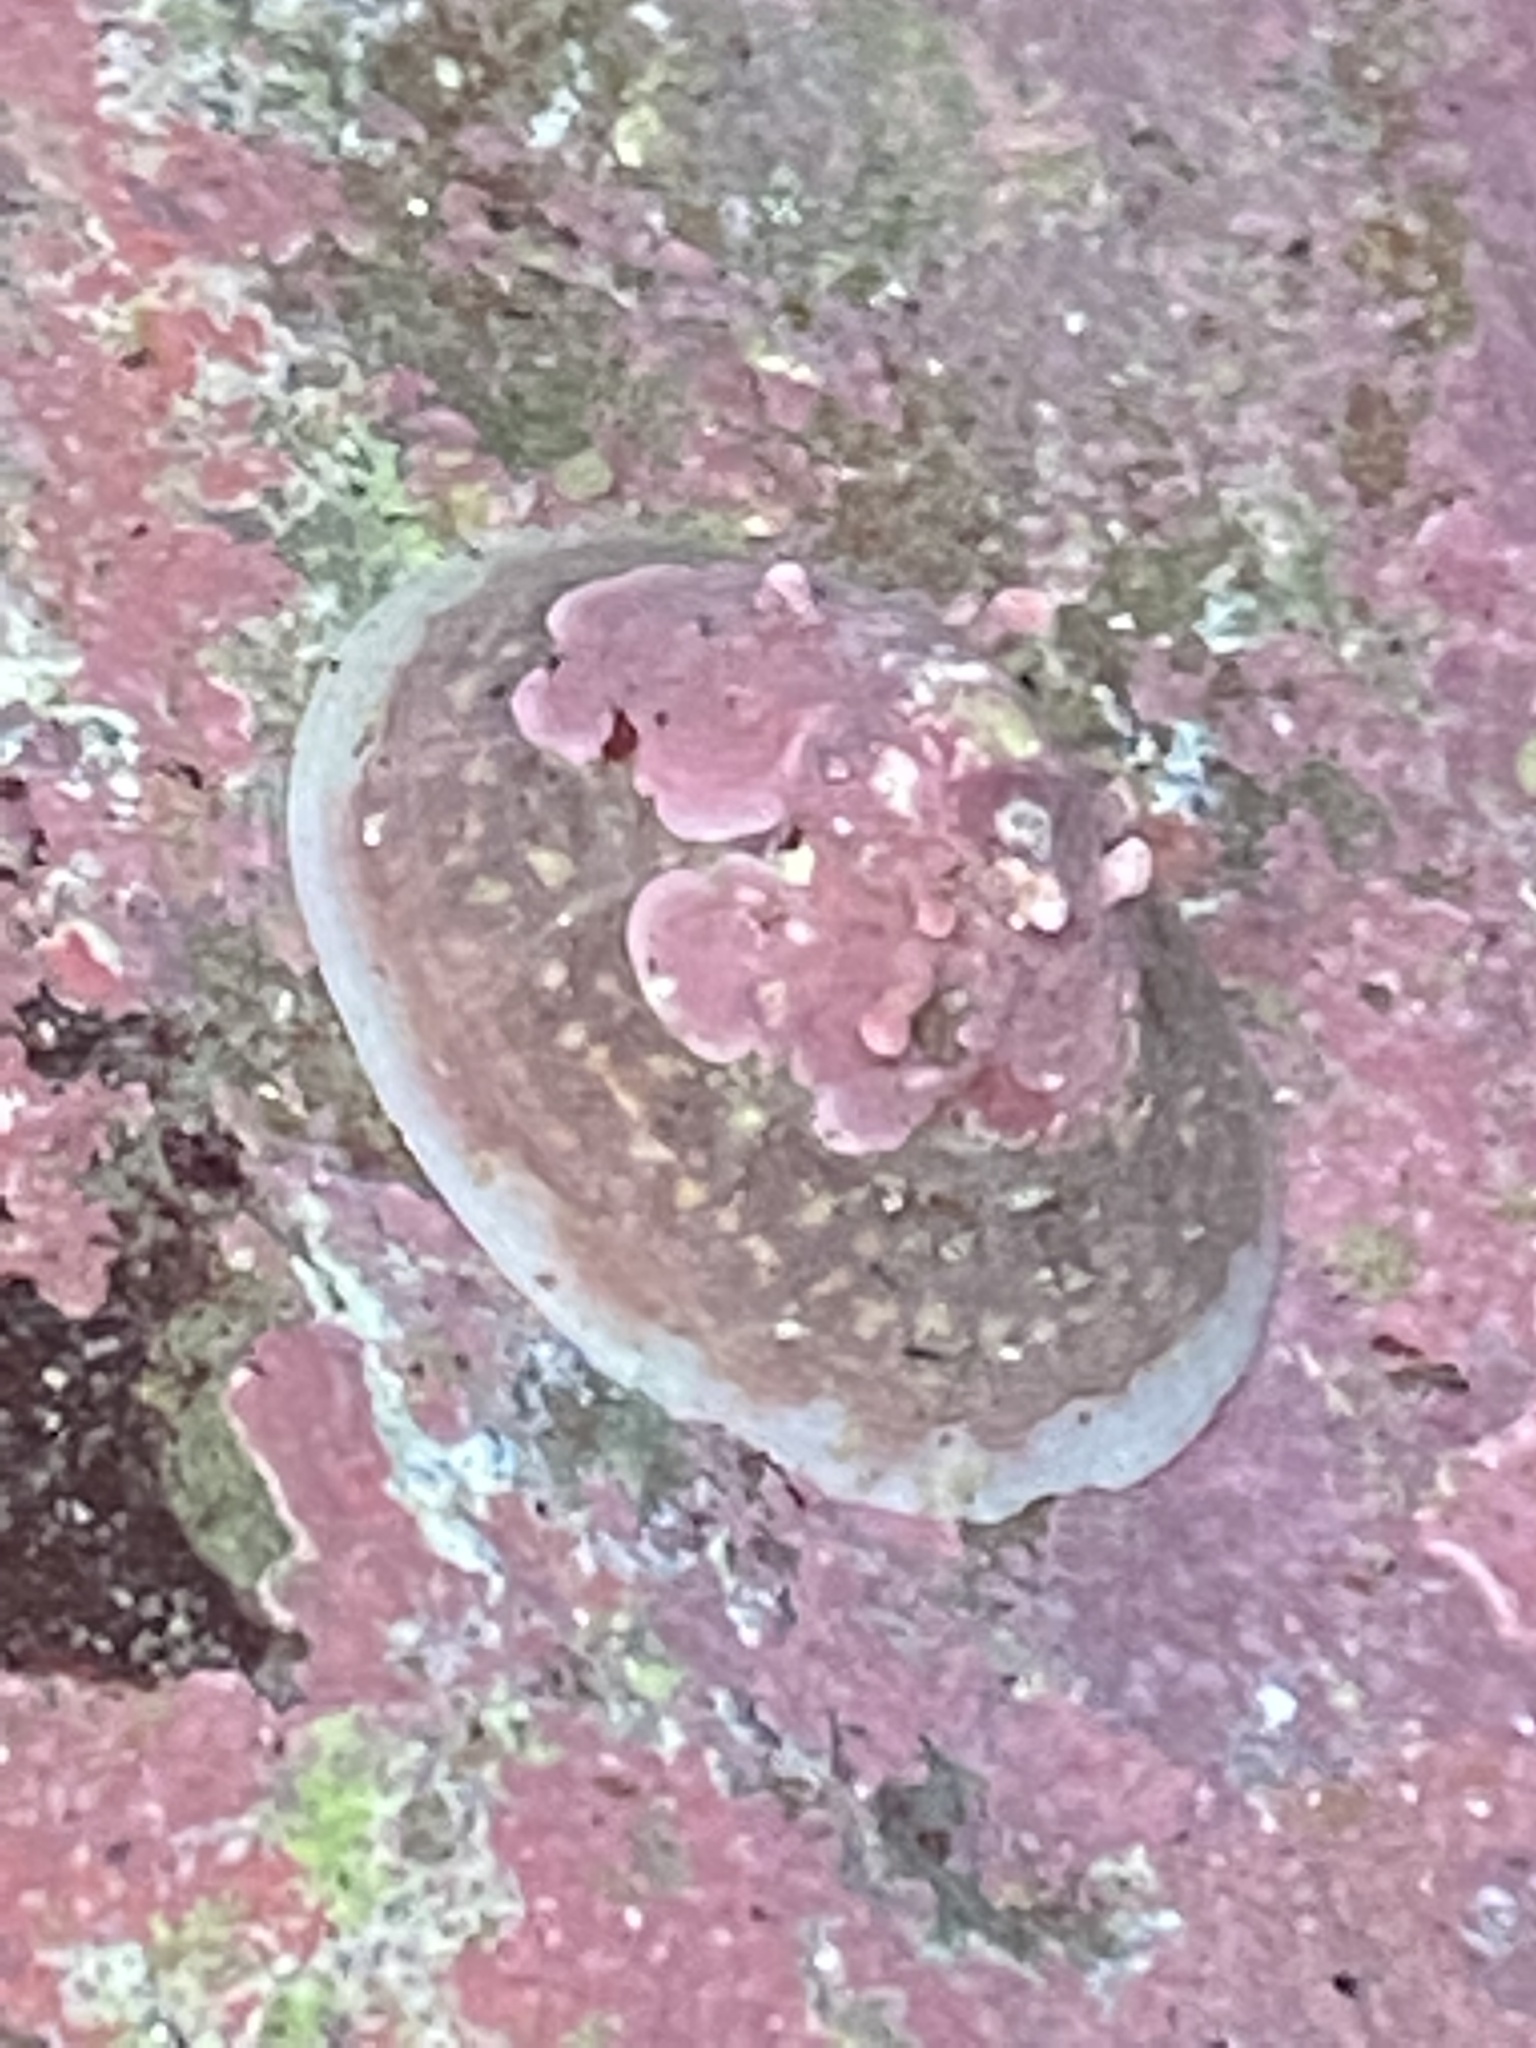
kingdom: Animalia
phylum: Mollusca
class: Gastropoda
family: Acmaeidae
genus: Acmaea
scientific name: Acmaea mitra
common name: Pacific white cap limpet
